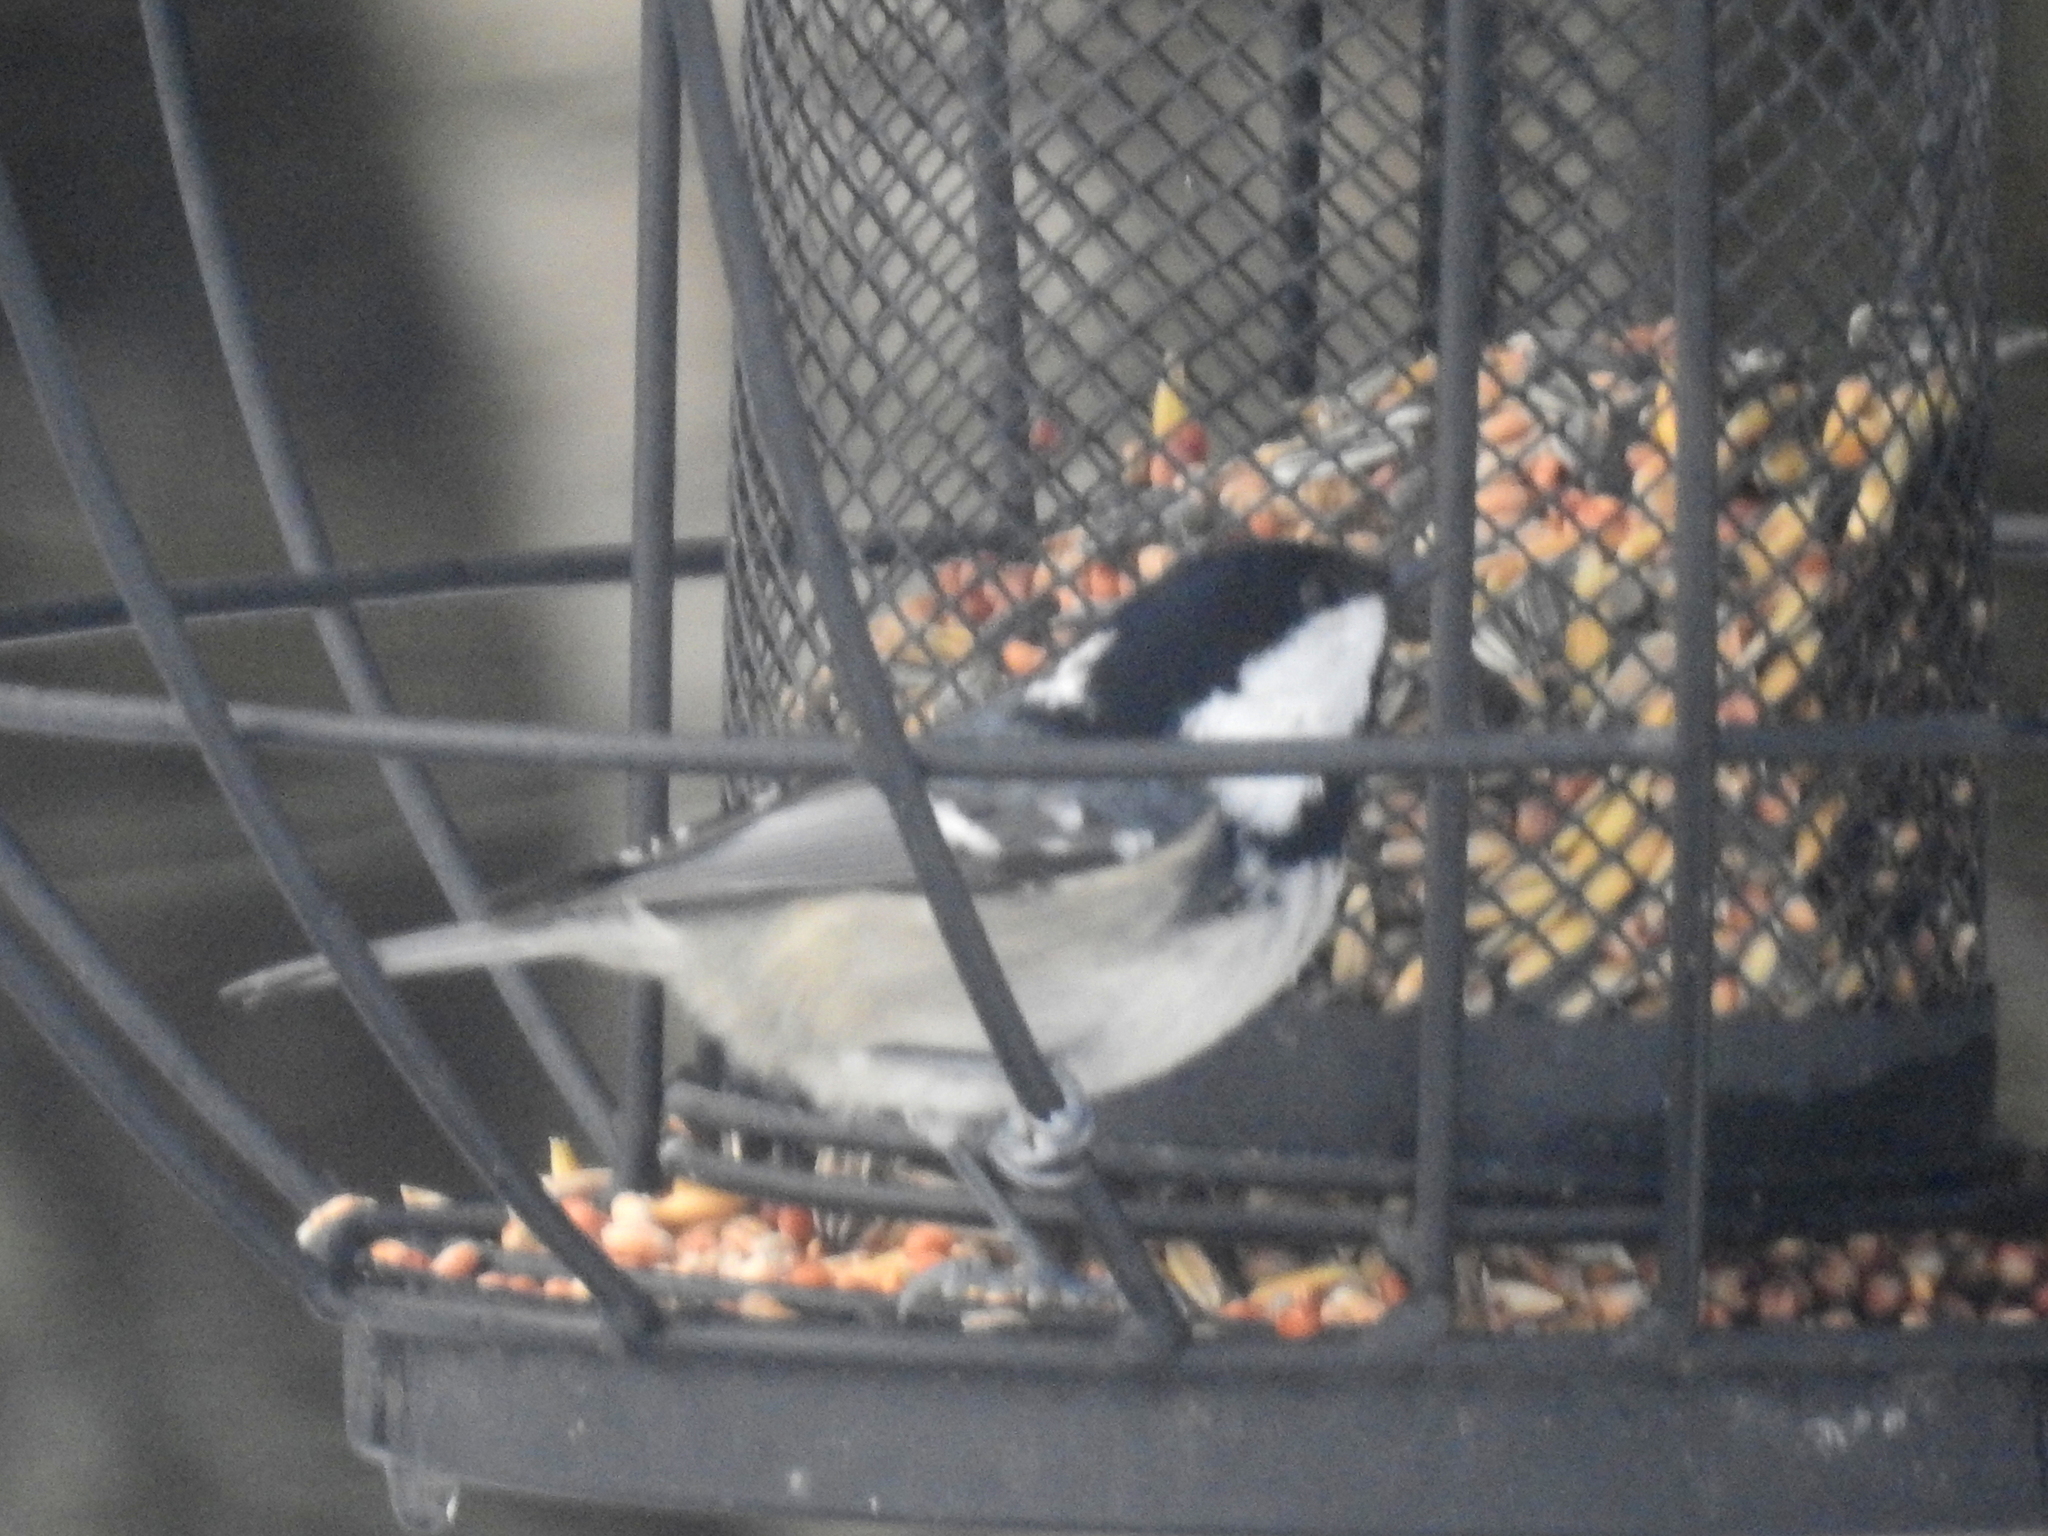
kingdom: Animalia
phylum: Chordata
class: Aves
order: Passeriformes
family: Paridae
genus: Periparus
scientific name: Periparus ater
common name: Coal tit
